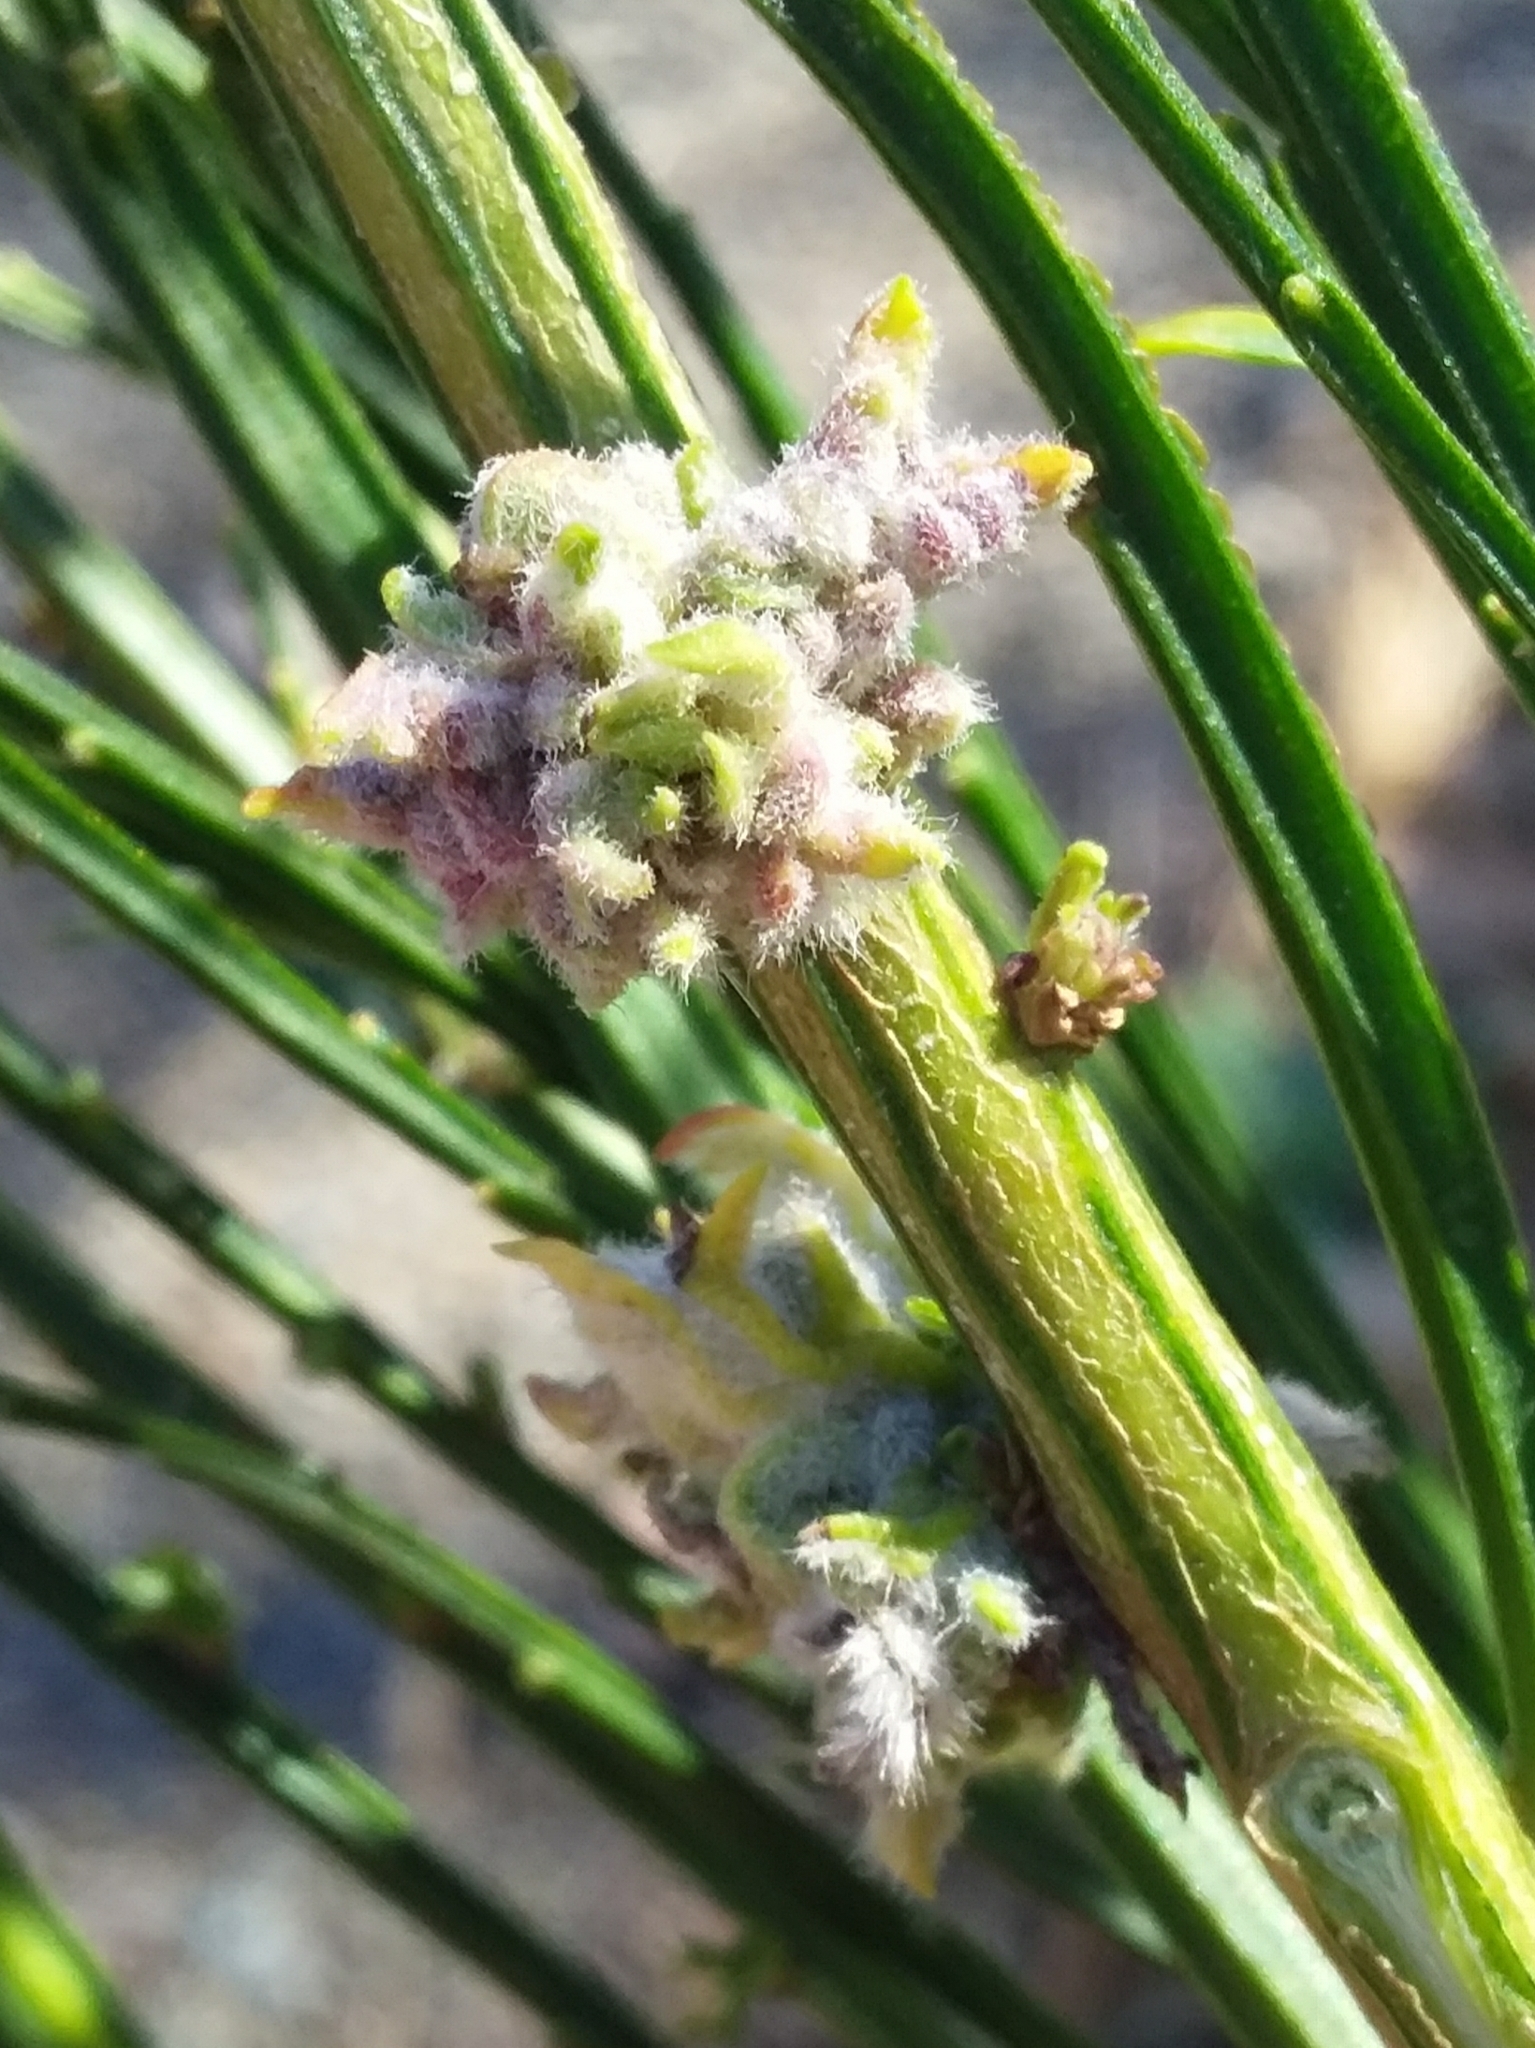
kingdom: Animalia
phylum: Arthropoda
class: Arachnida
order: Trombidiformes
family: Eriophyidae
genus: Aceria
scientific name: Aceria genistae
